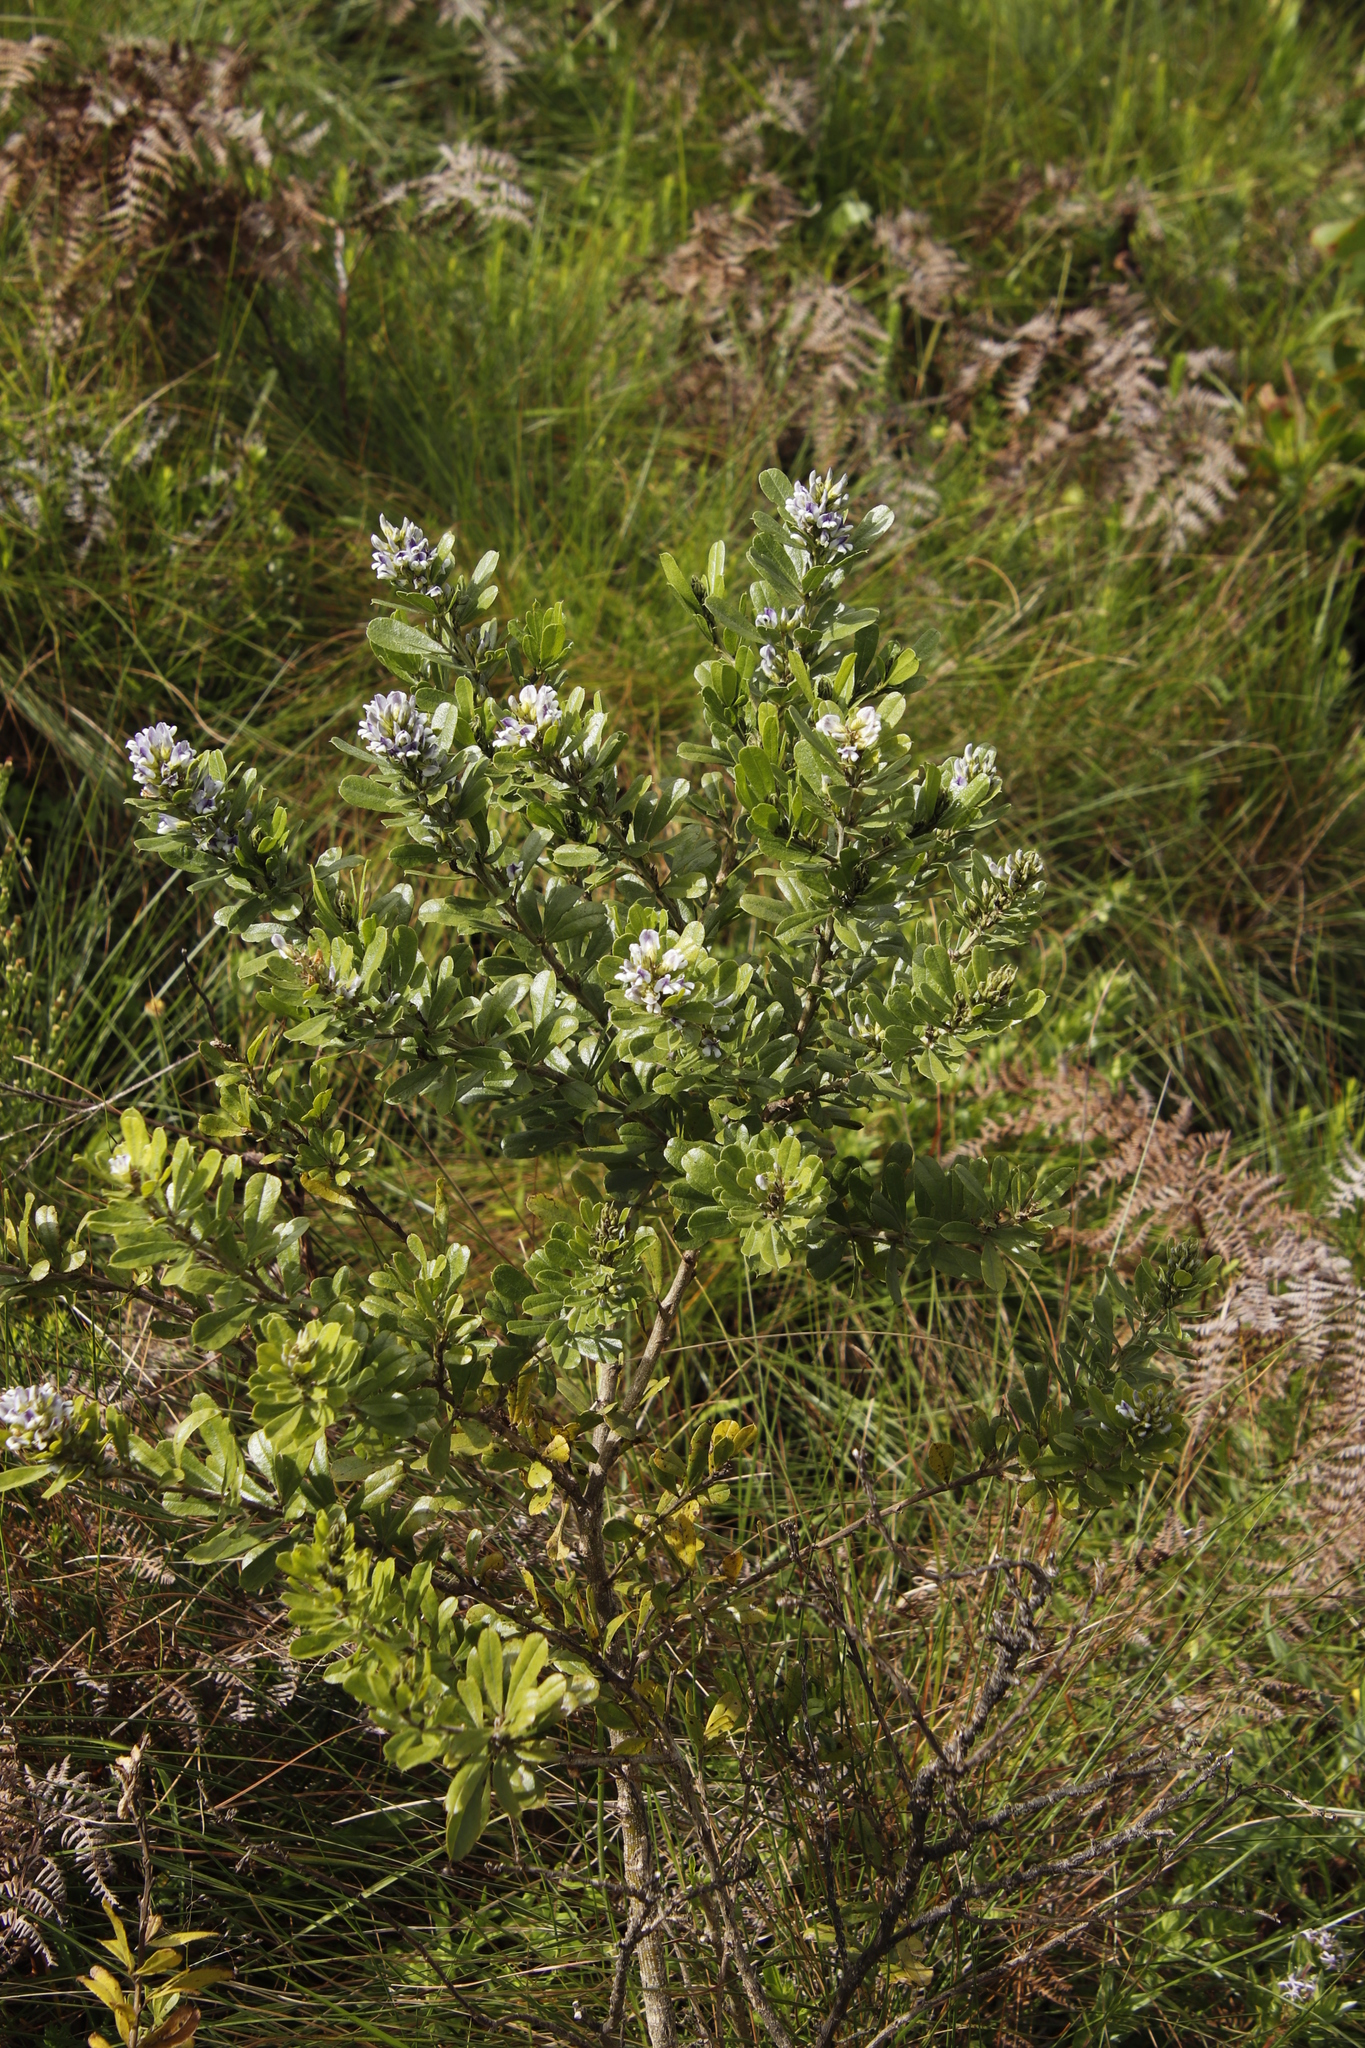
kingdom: Plantae
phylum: Tracheophyta
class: Magnoliopsida
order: Fabales
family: Fabaceae
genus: Psoralea
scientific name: Psoralea foliosa
